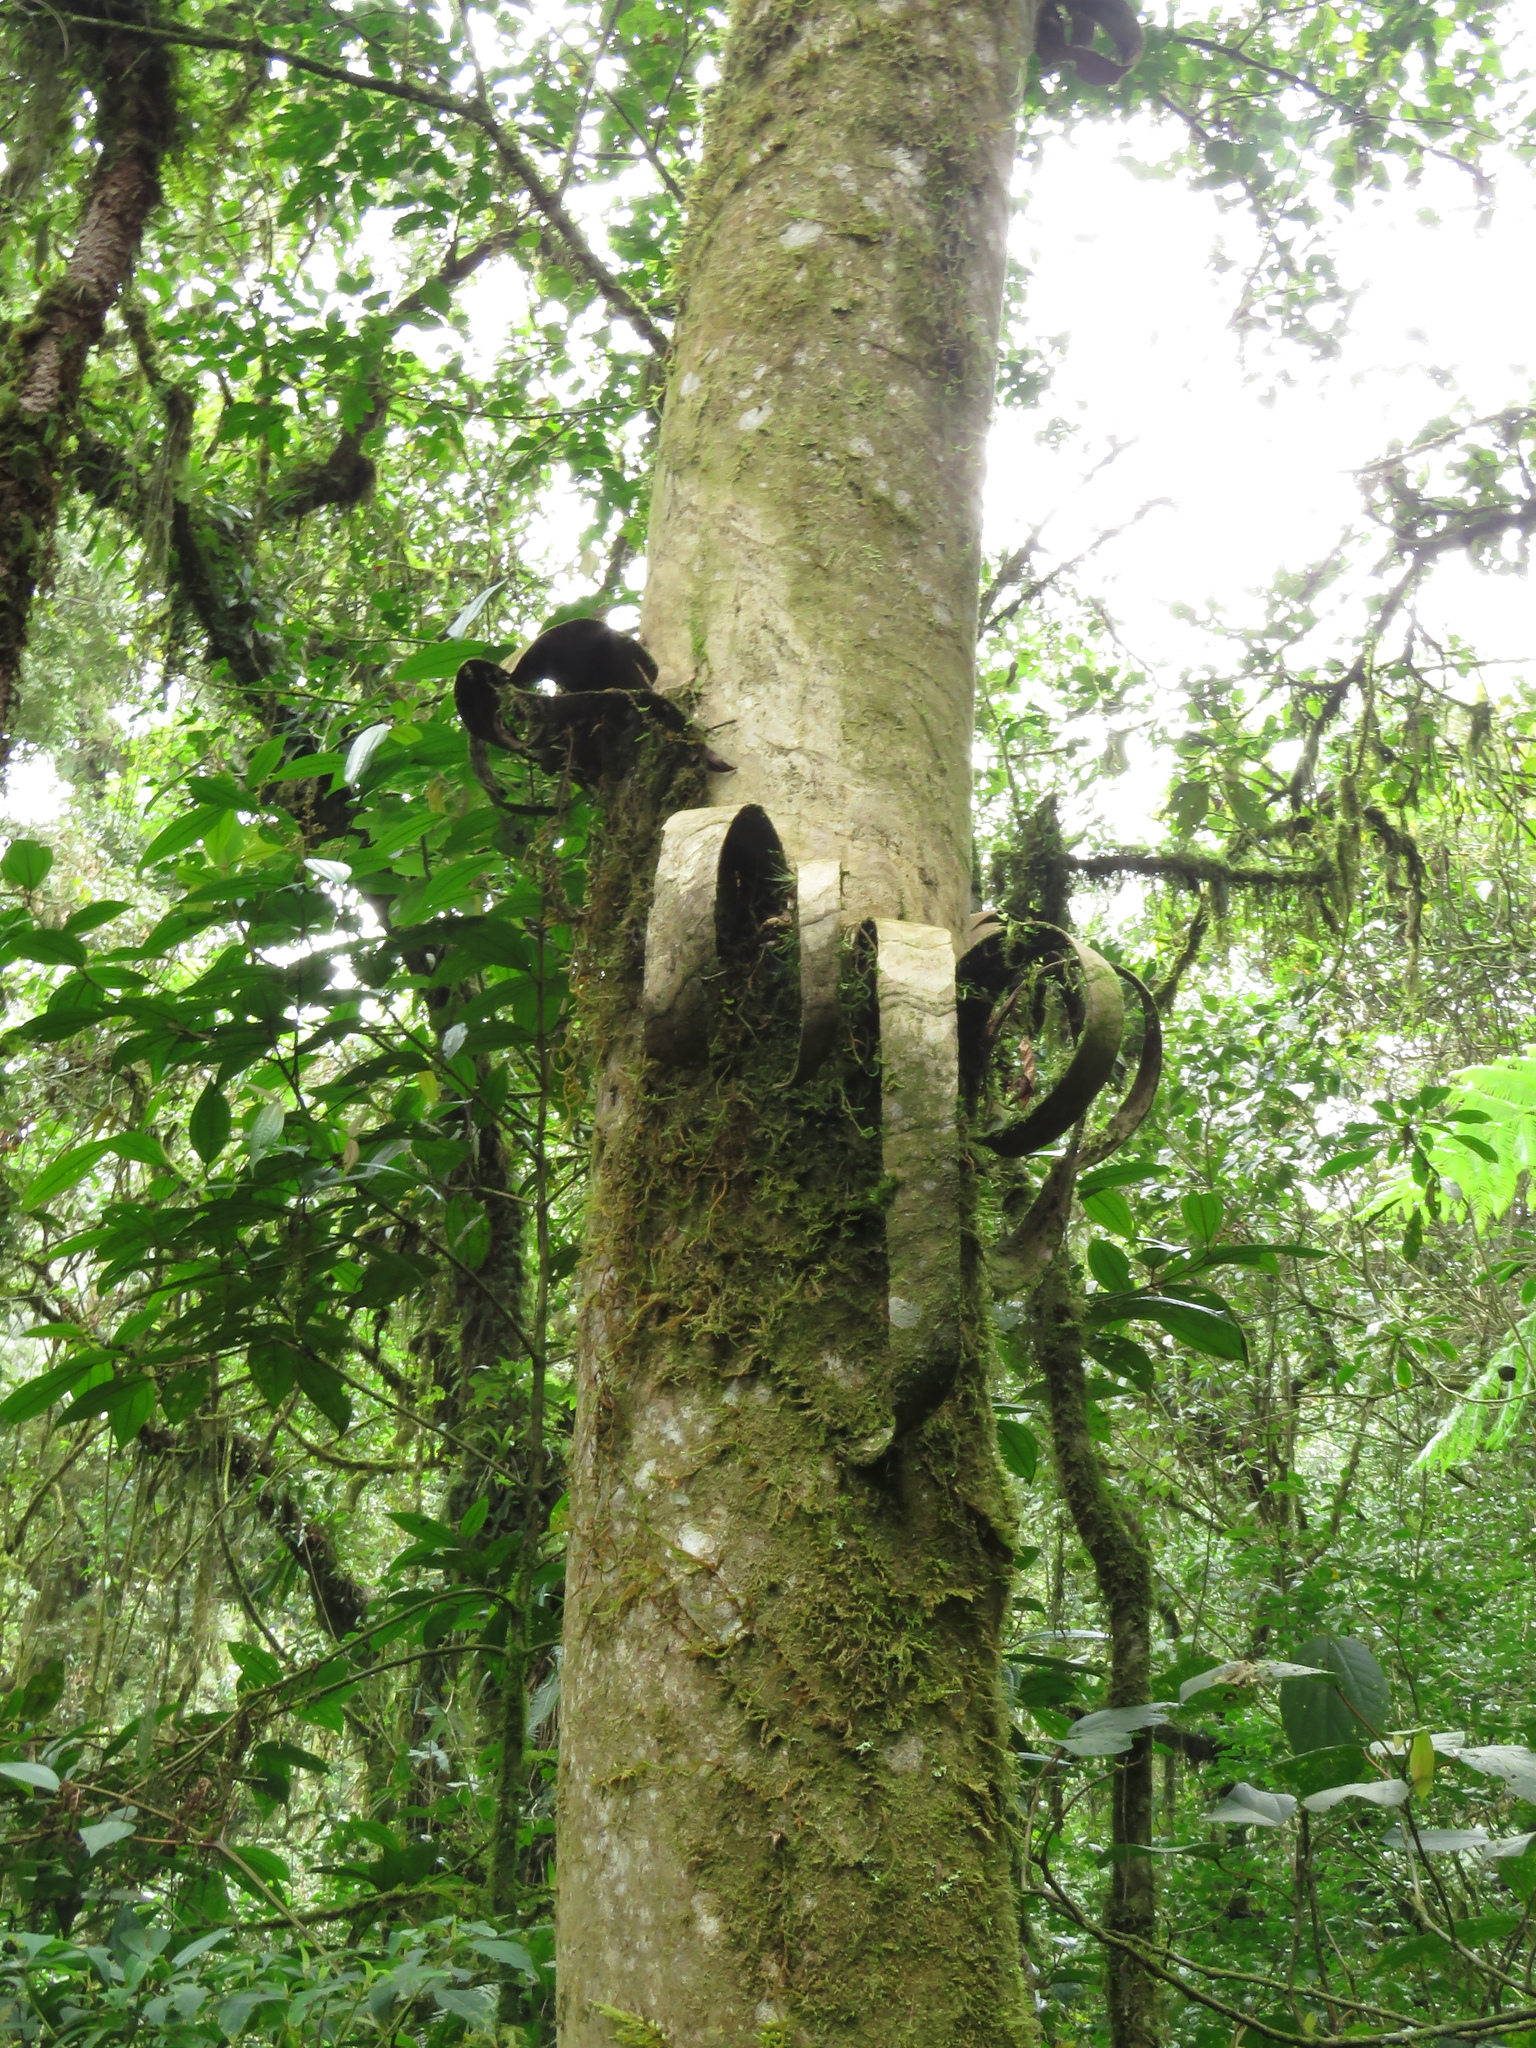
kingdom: Plantae
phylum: Tracheophyta
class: Magnoliopsida
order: Fagales
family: Juglandaceae
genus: Oreomunnea
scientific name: Oreomunnea mexicana
